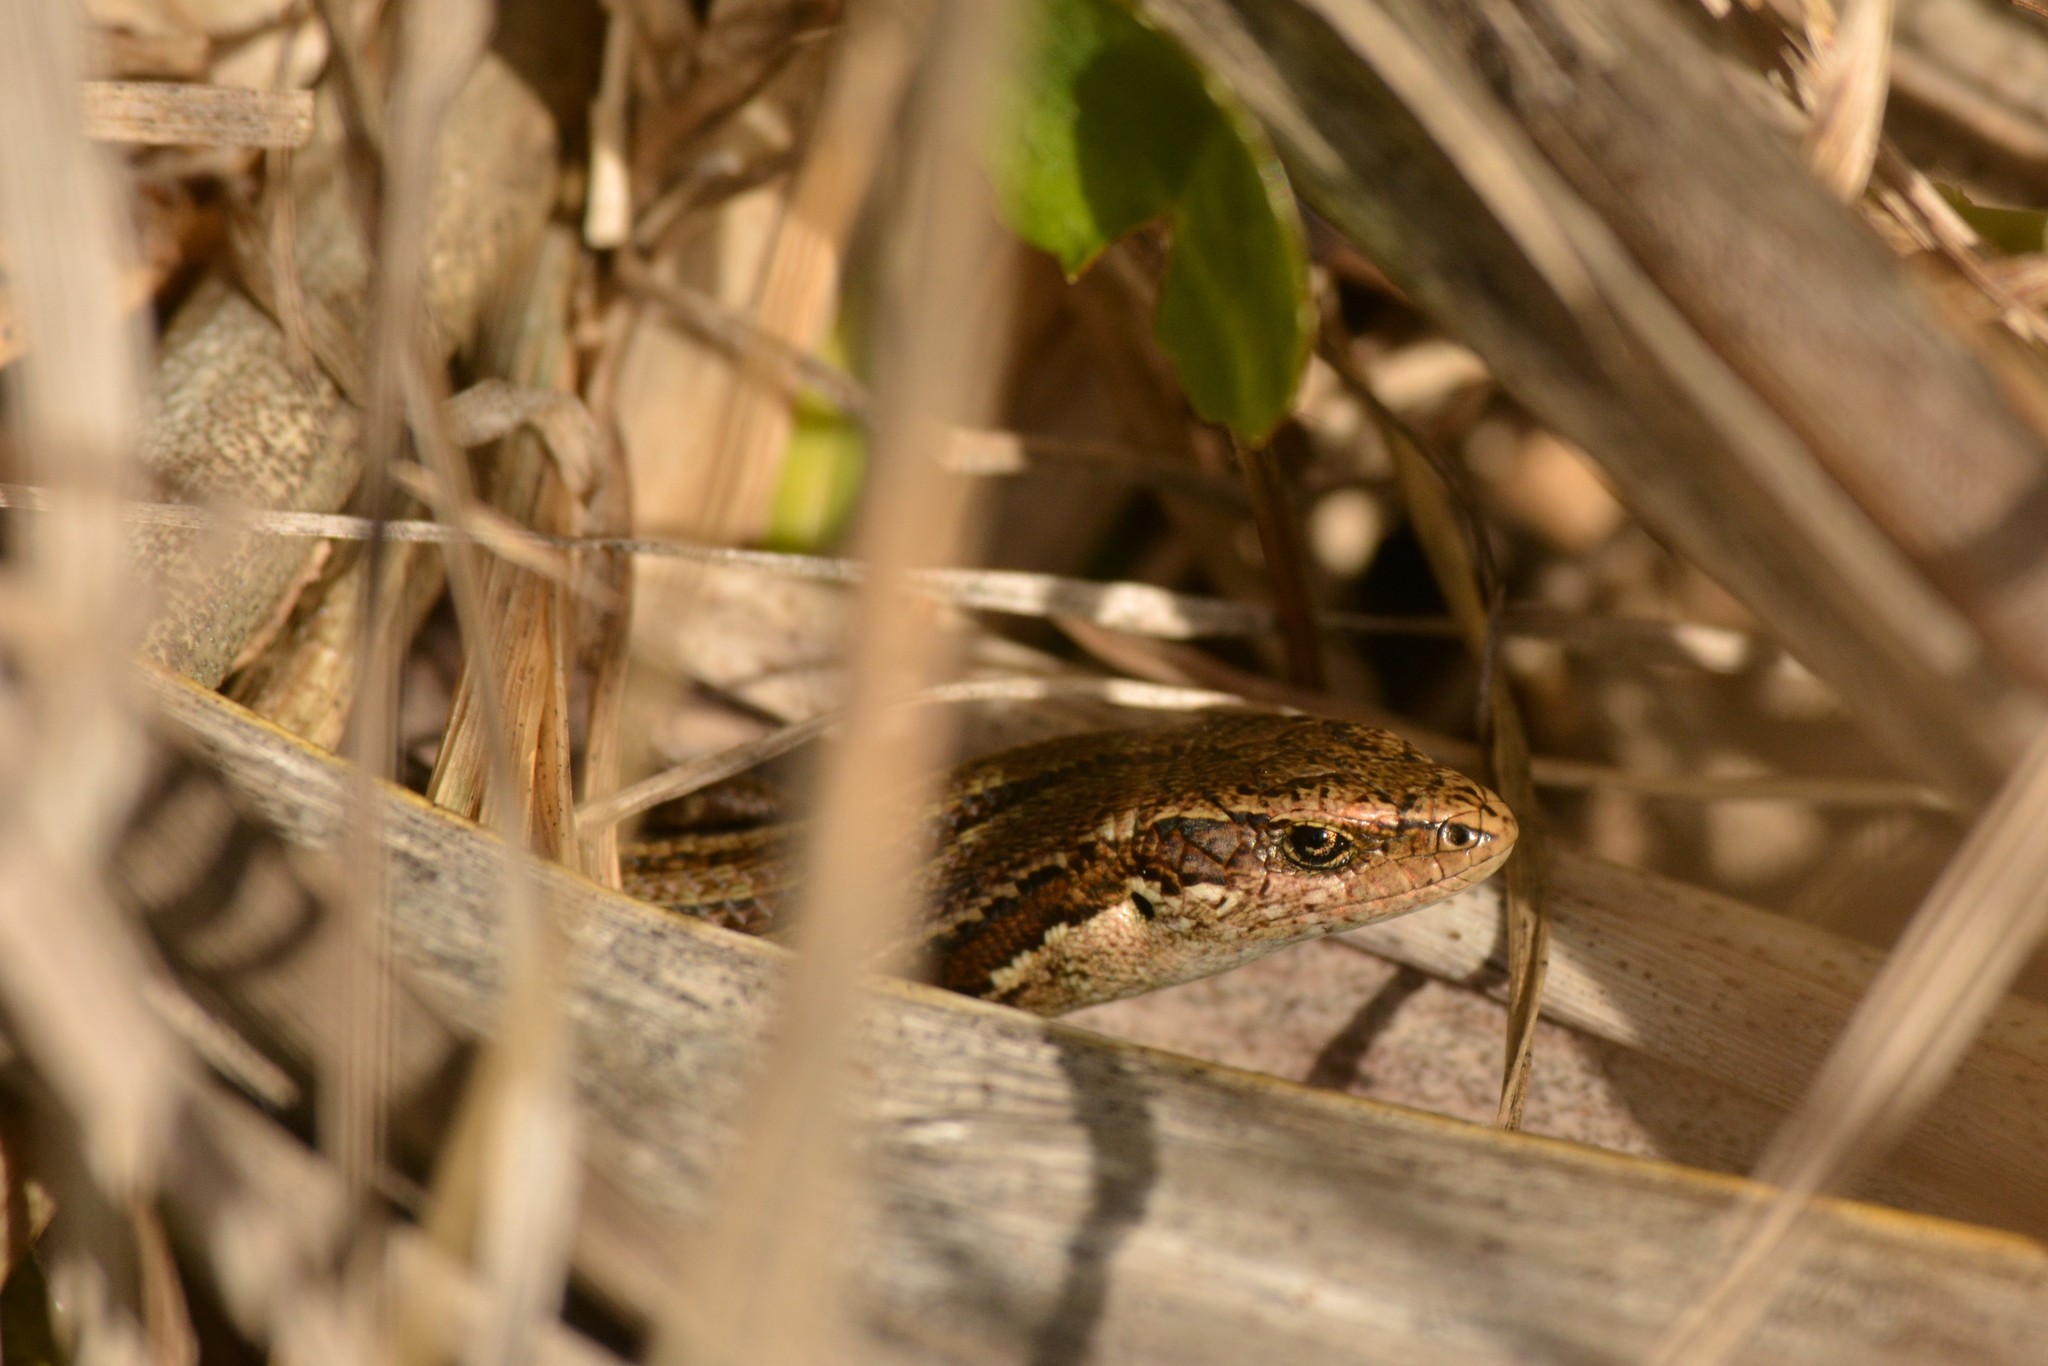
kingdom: Animalia
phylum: Chordata
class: Squamata
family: Scincidae
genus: Oligosoma
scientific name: Oligosoma polychroma
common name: Common new zealand skink
